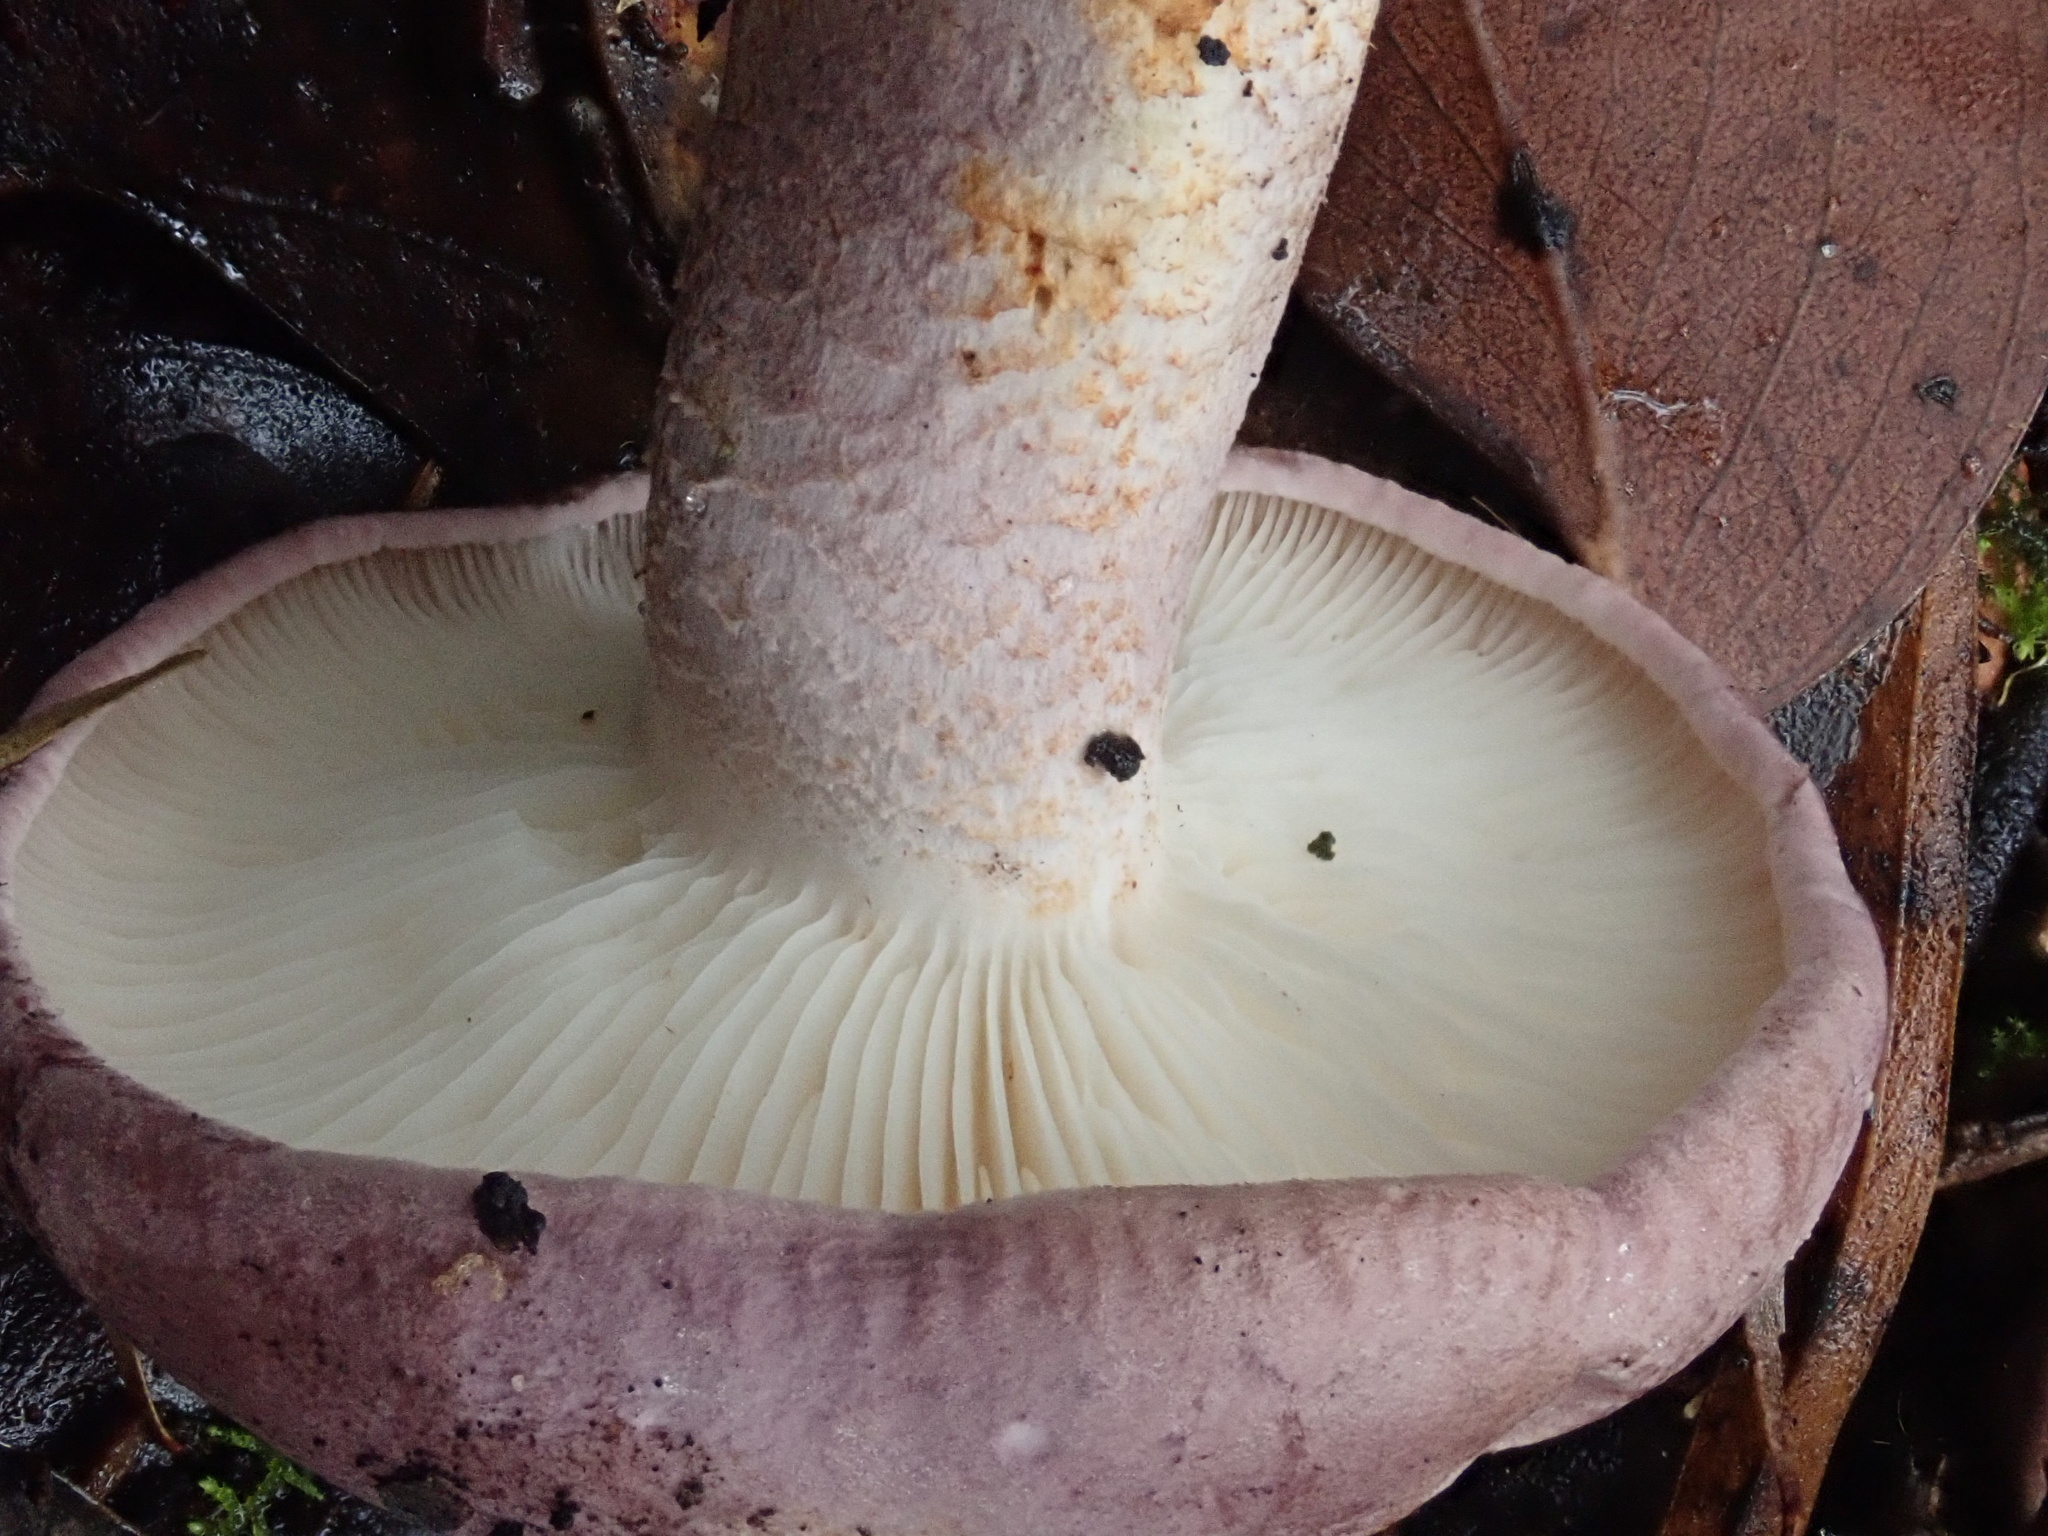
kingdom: Fungi
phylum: Basidiomycota
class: Agaricomycetes
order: Agaricales
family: Tricholomataceae
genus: Leucopaxillus
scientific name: Leucopaxillus lilacinus
